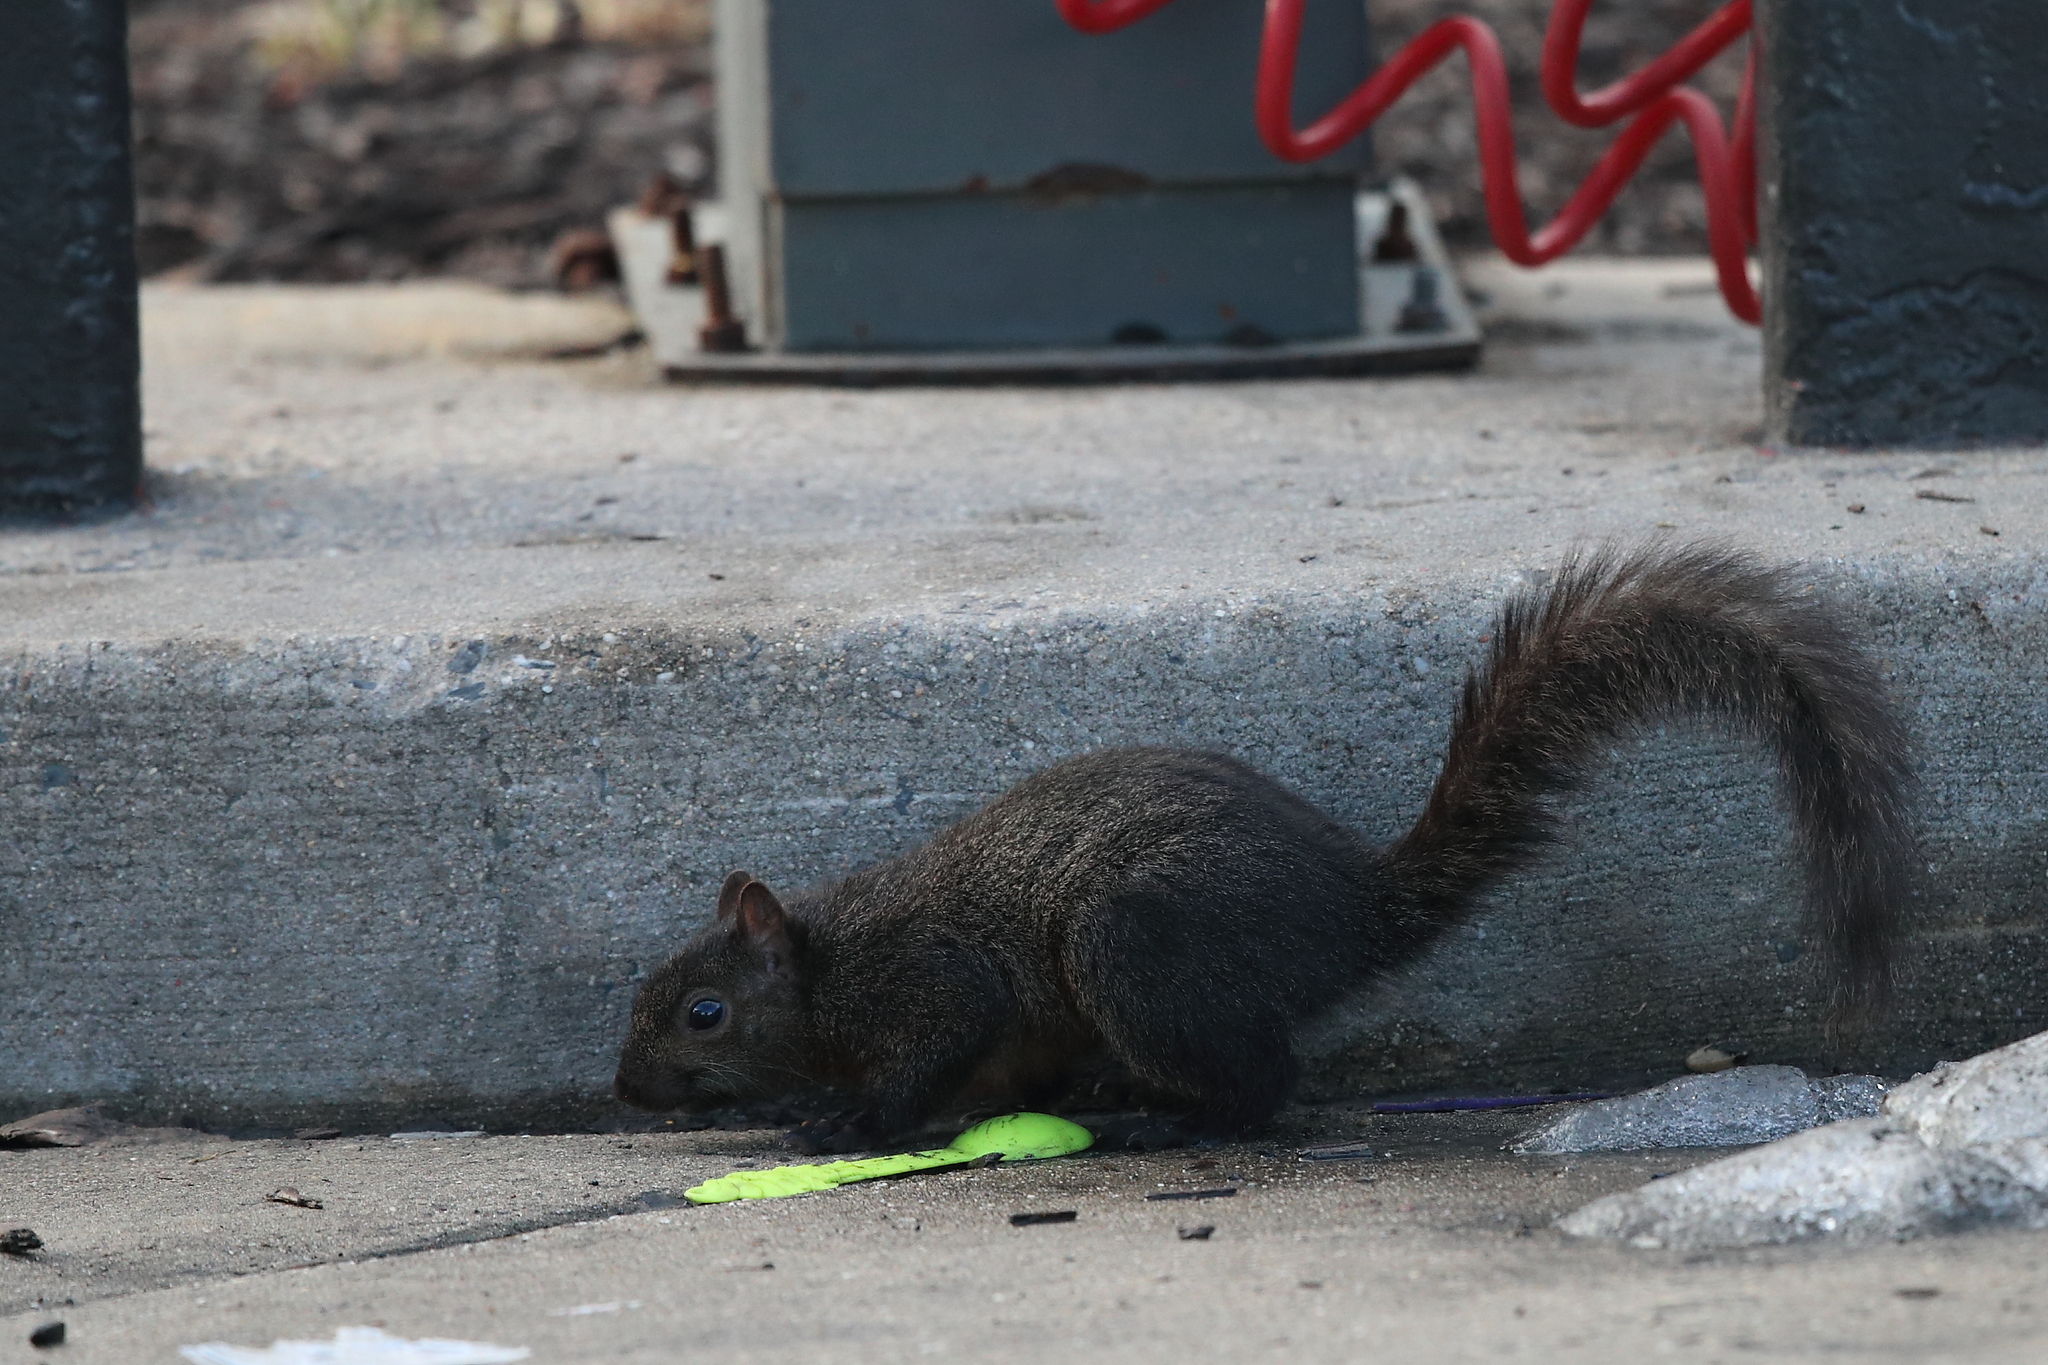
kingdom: Animalia
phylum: Chordata
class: Mammalia
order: Rodentia
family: Sciuridae
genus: Sciurus
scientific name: Sciurus carolinensis
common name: Eastern gray squirrel
